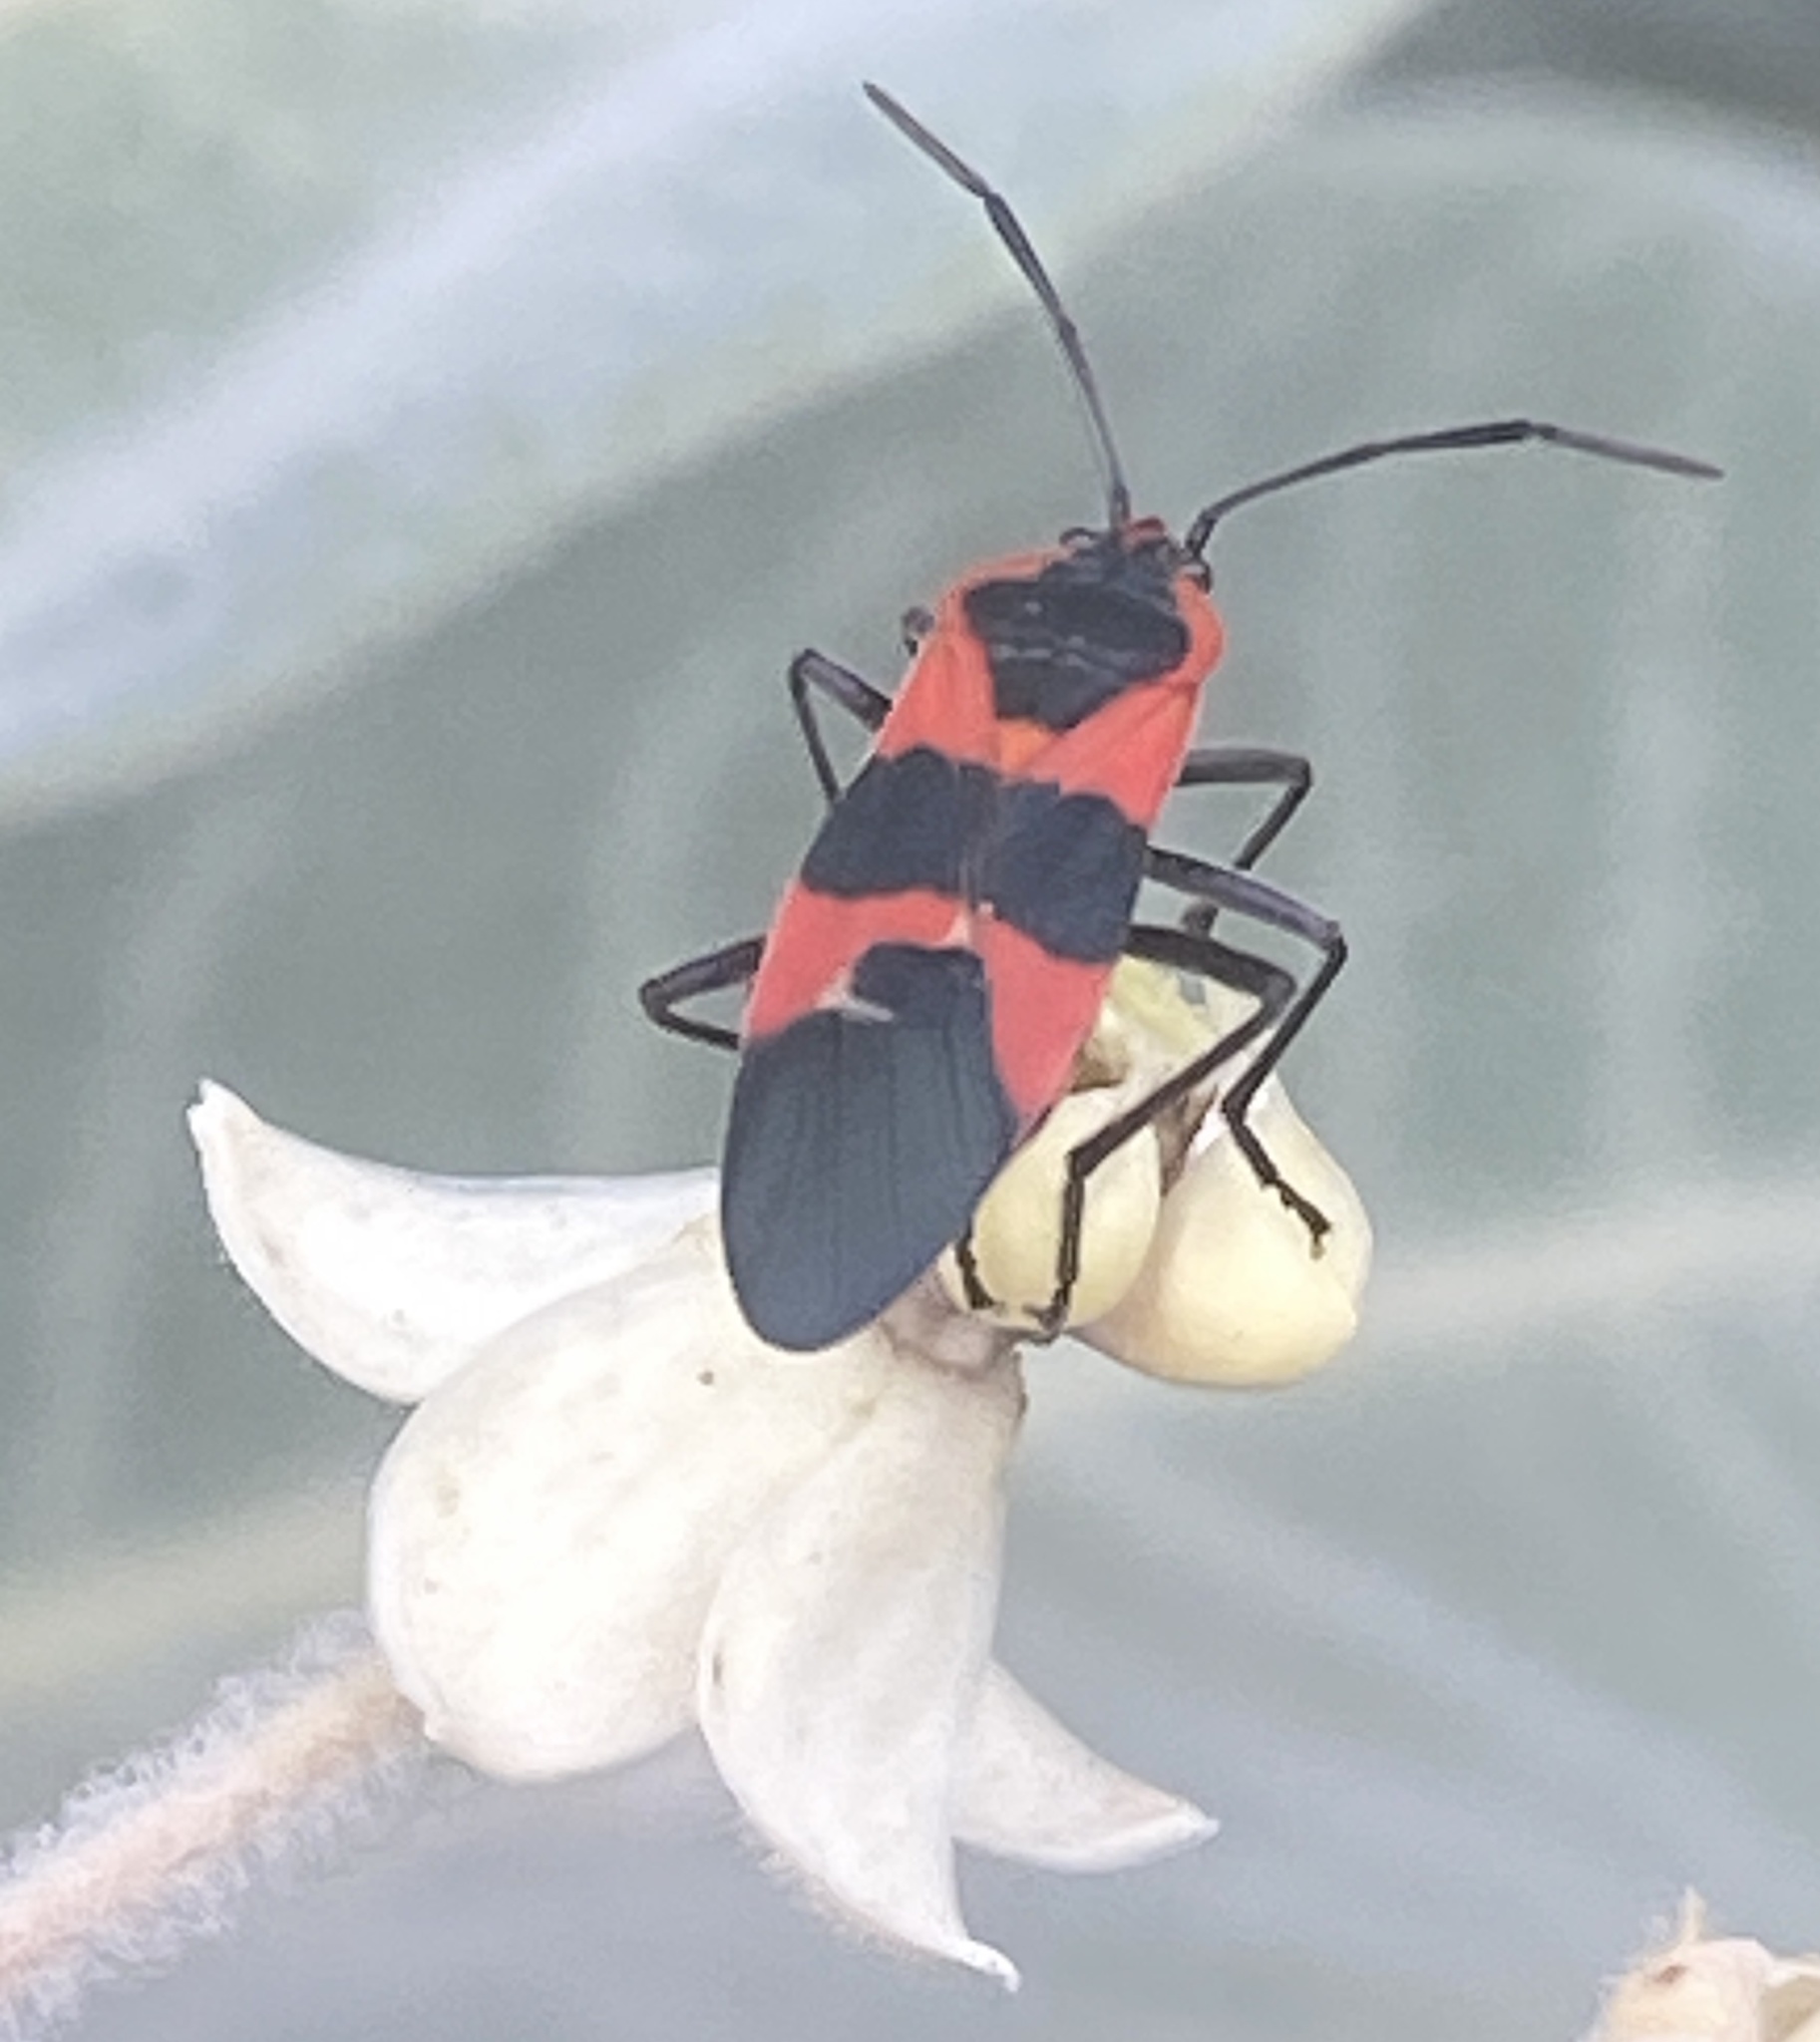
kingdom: Animalia
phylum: Arthropoda
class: Insecta
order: Hemiptera
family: Lygaeidae
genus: Oncopeltus
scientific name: Oncopeltus fasciatus
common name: Large milkweed bug
